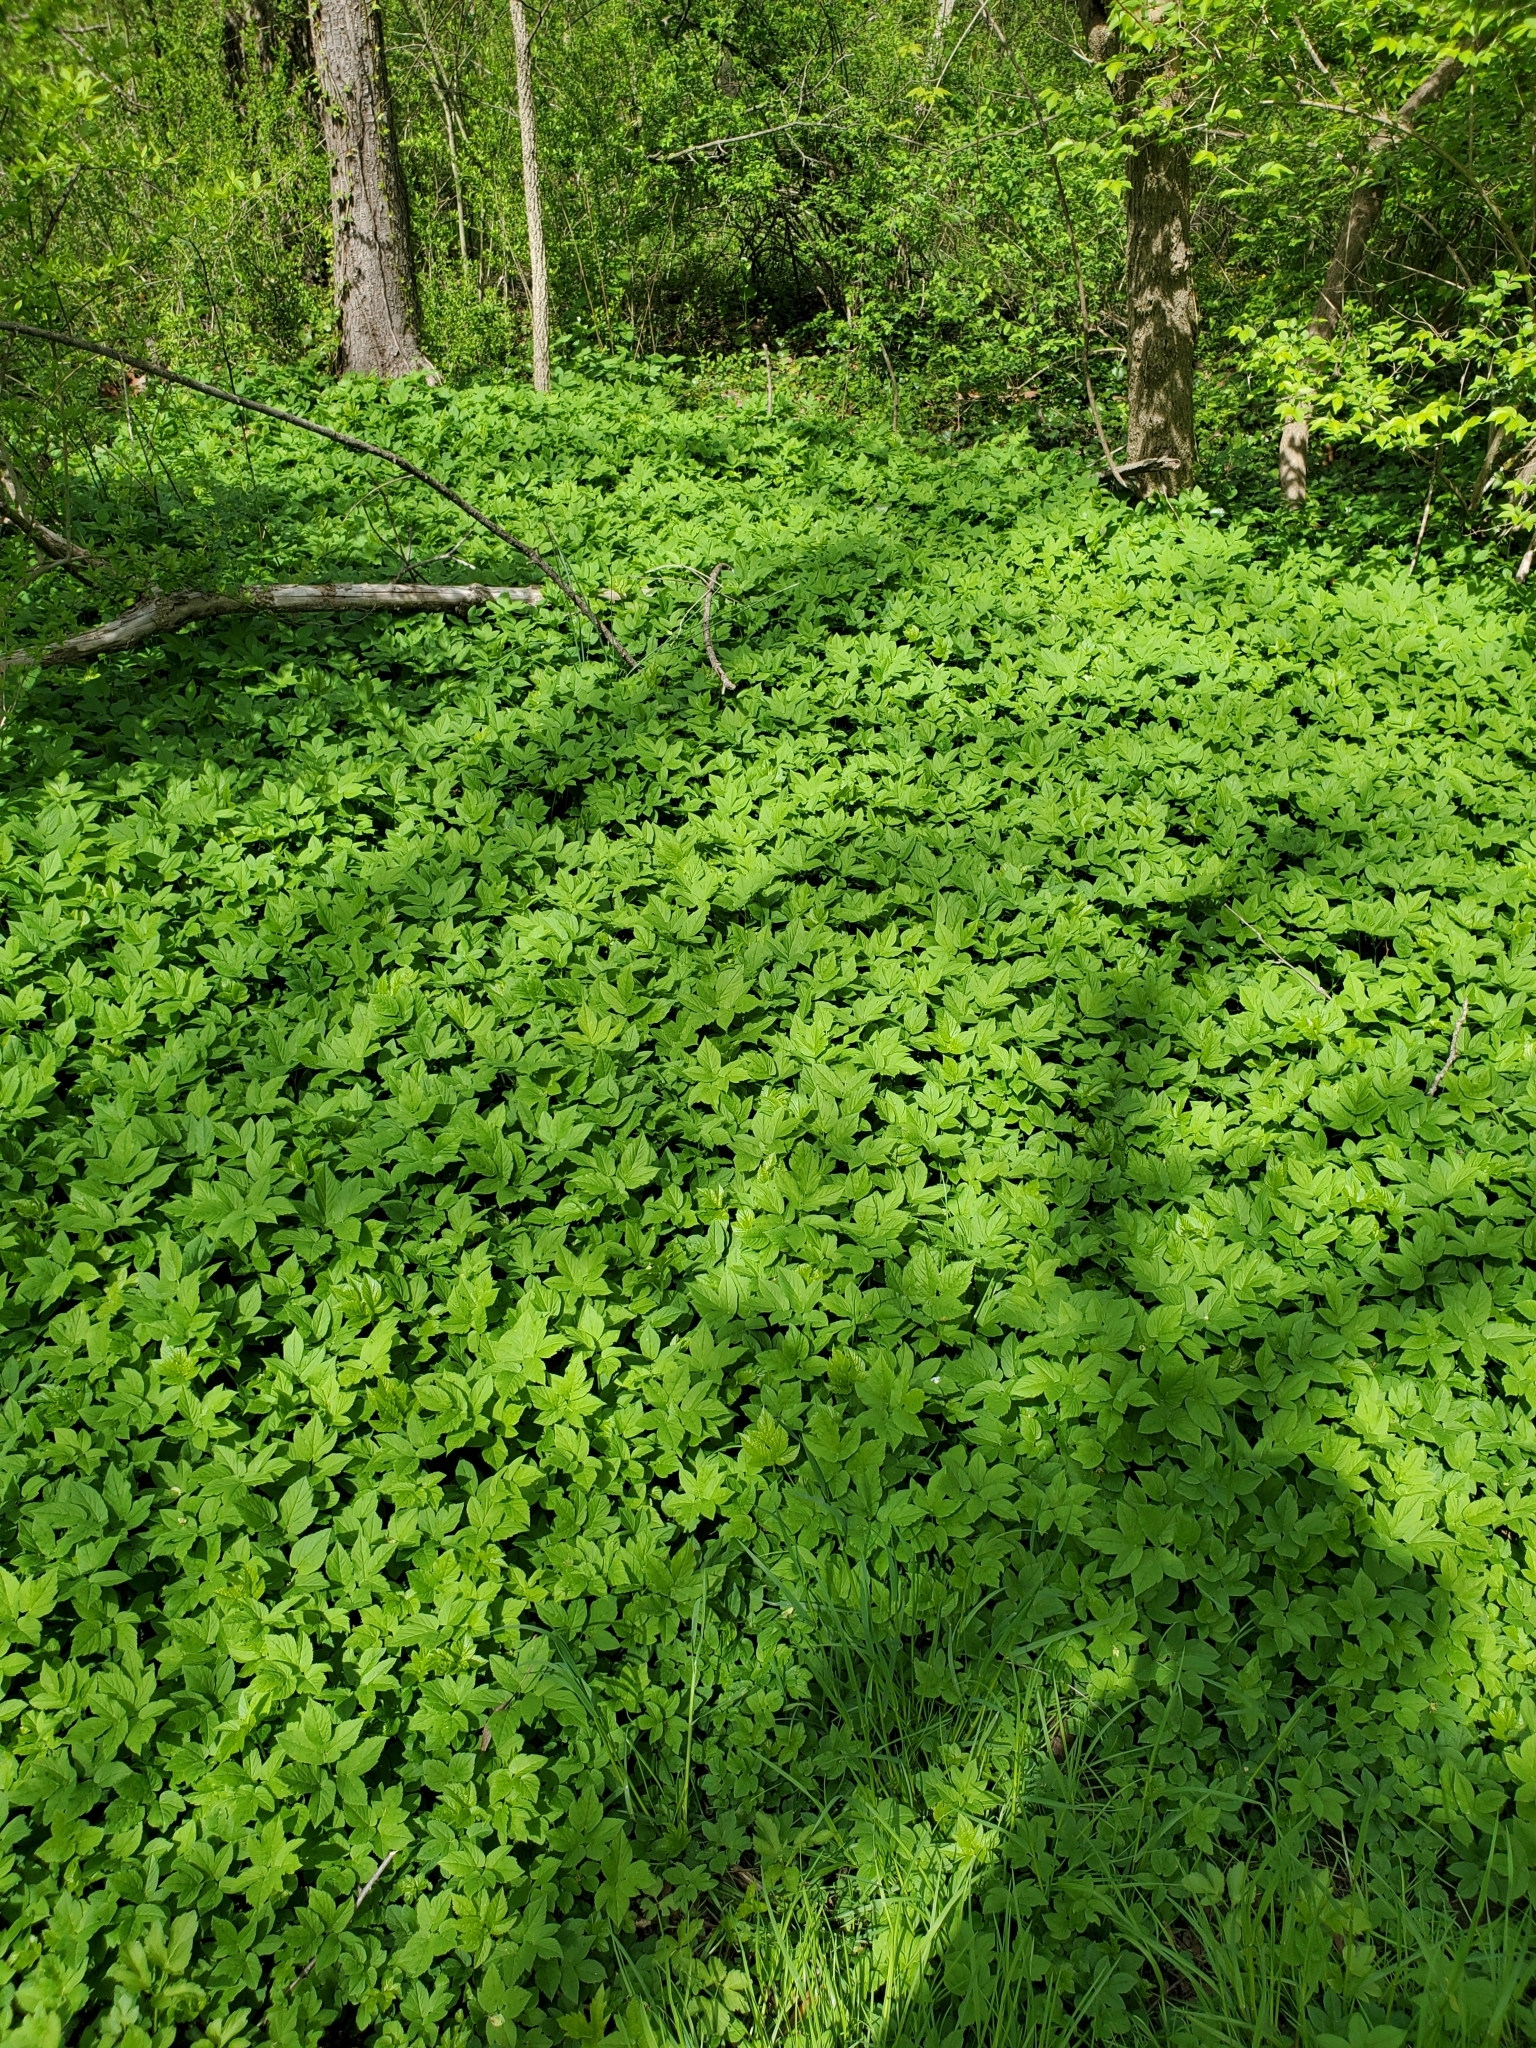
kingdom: Plantae
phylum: Tracheophyta
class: Magnoliopsida
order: Apiales
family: Apiaceae
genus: Aegopodium
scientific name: Aegopodium podagraria
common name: Ground-elder
